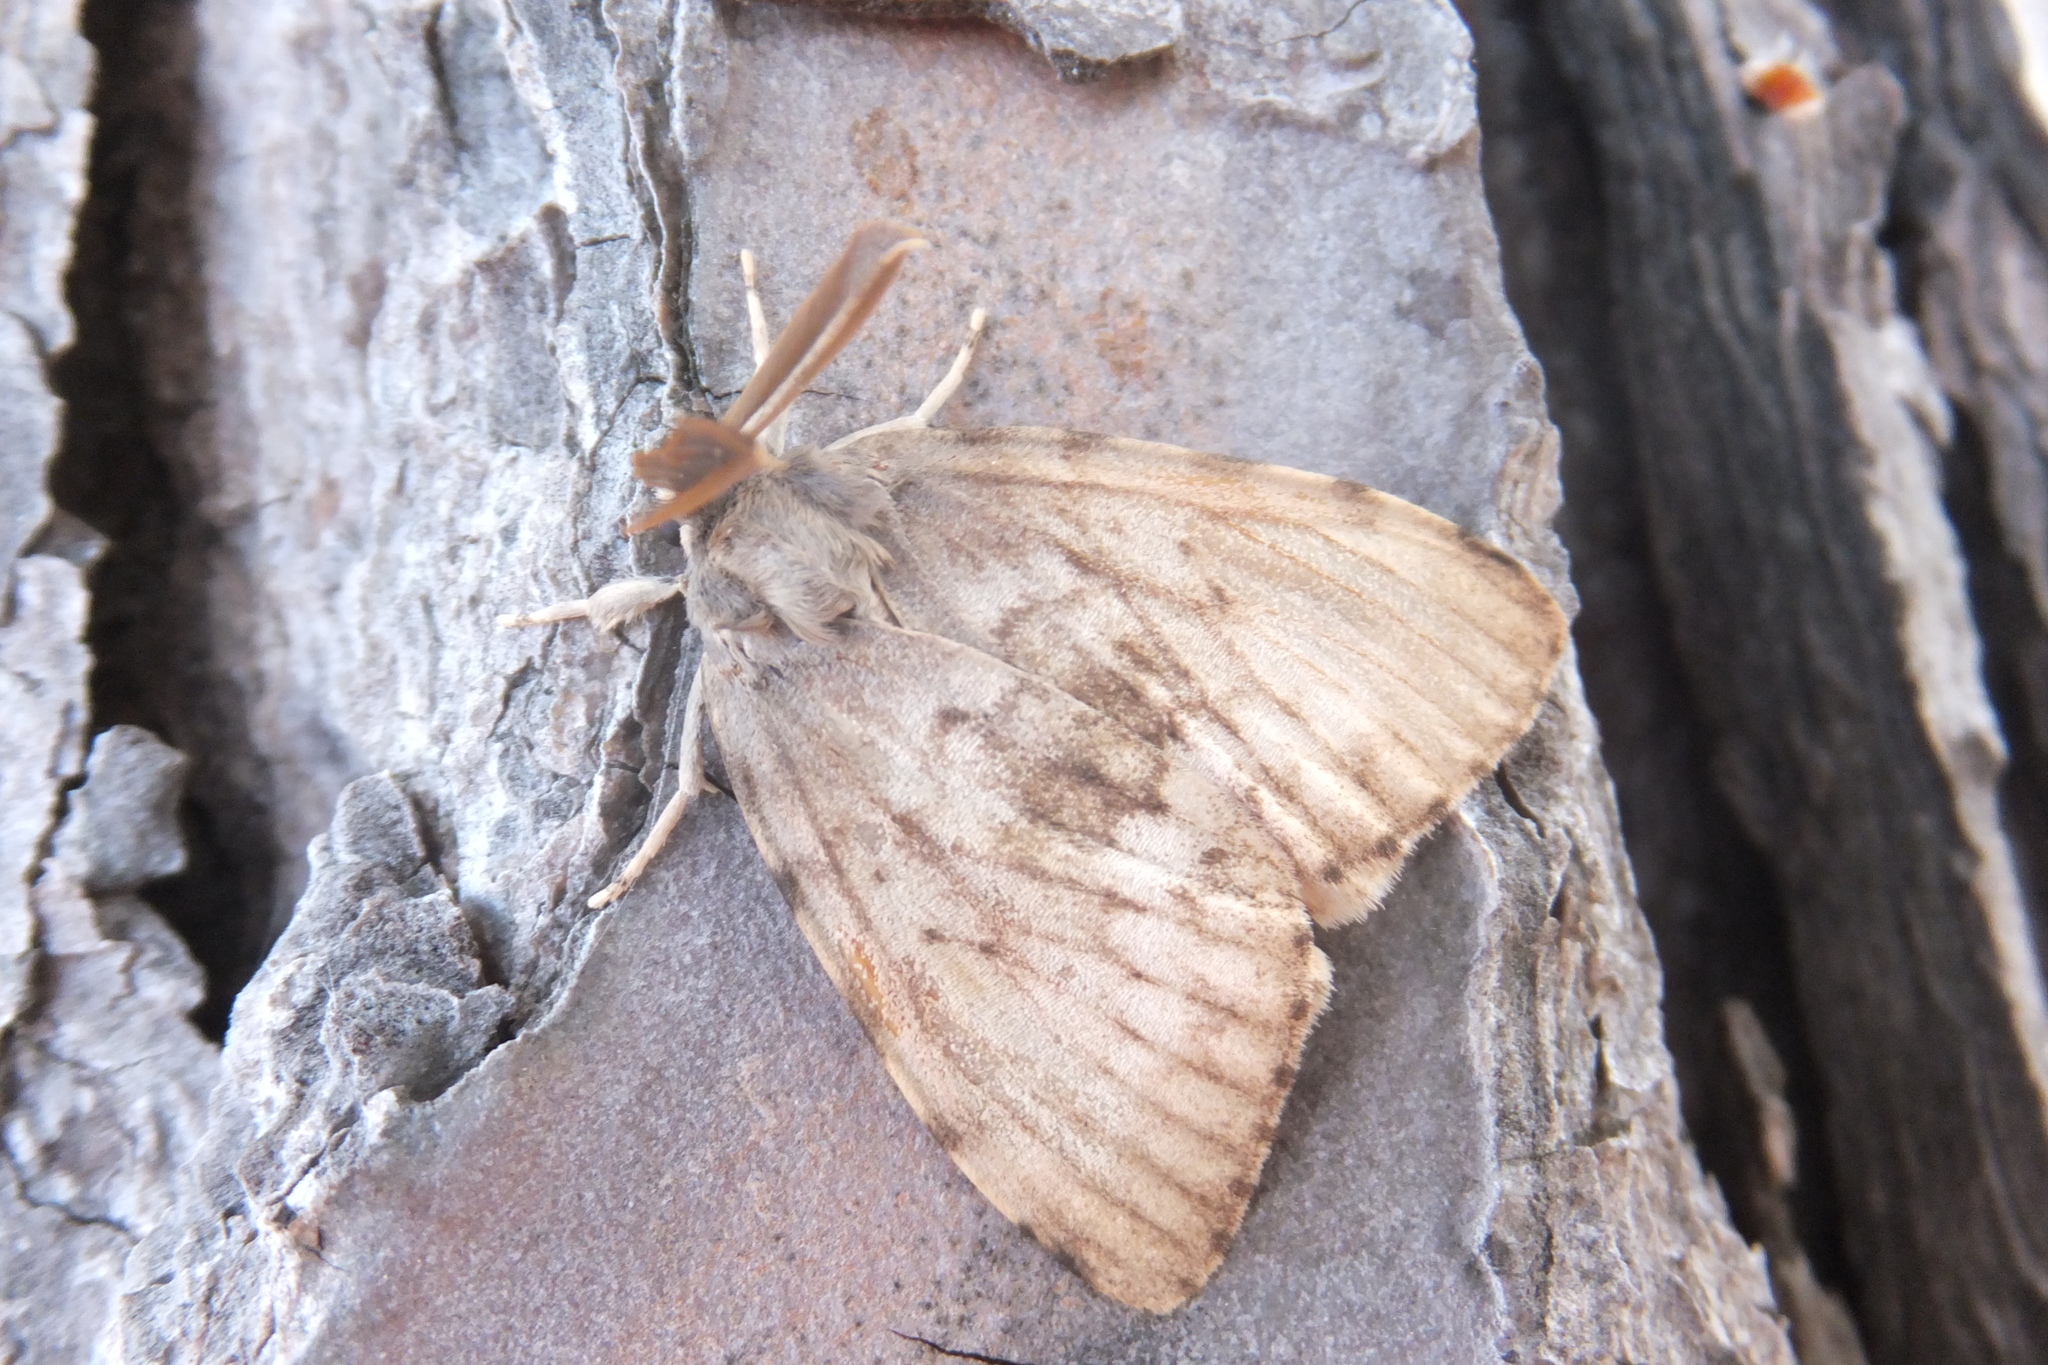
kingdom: Animalia
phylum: Arthropoda
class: Insecta
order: Lepidoptera
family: Erebidae
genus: Lymantria
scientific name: Lymantria dispar
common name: Gypsy moth
